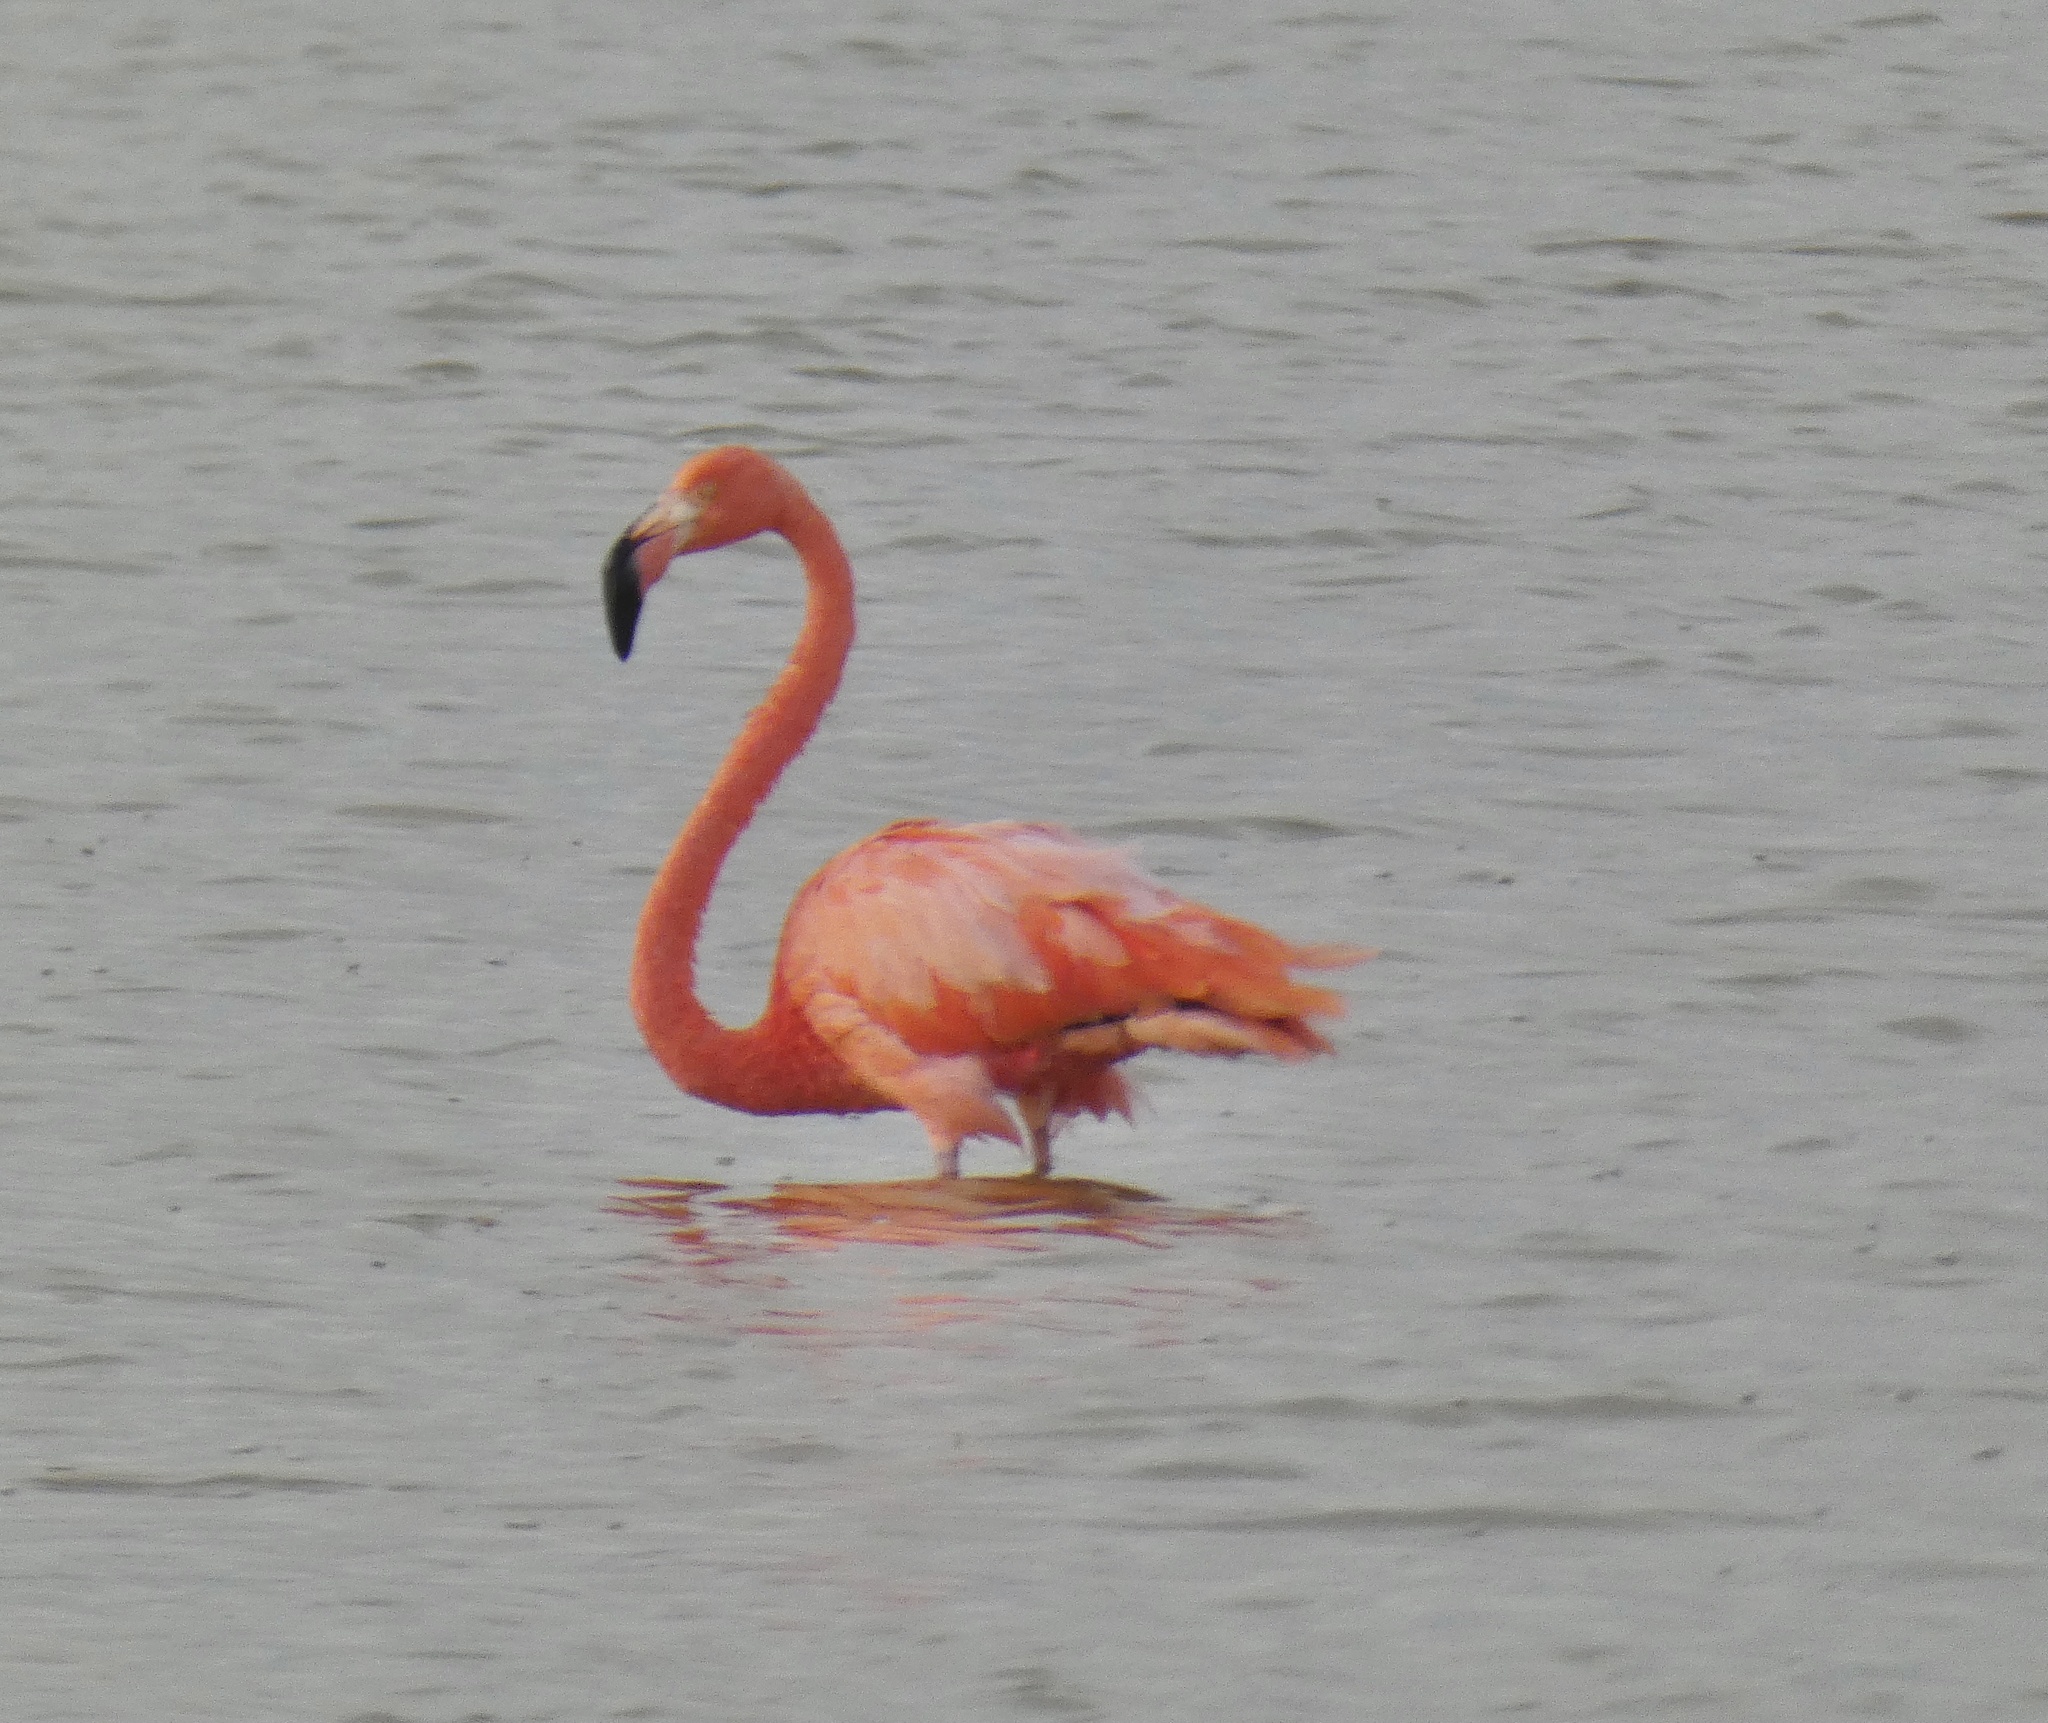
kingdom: Animalia
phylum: Chordata
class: Aves
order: Phoenicopteriformes
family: Phoenicopteridae
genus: Phoenicopterus
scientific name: Phoenicopterus ruber
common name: American flamingo
